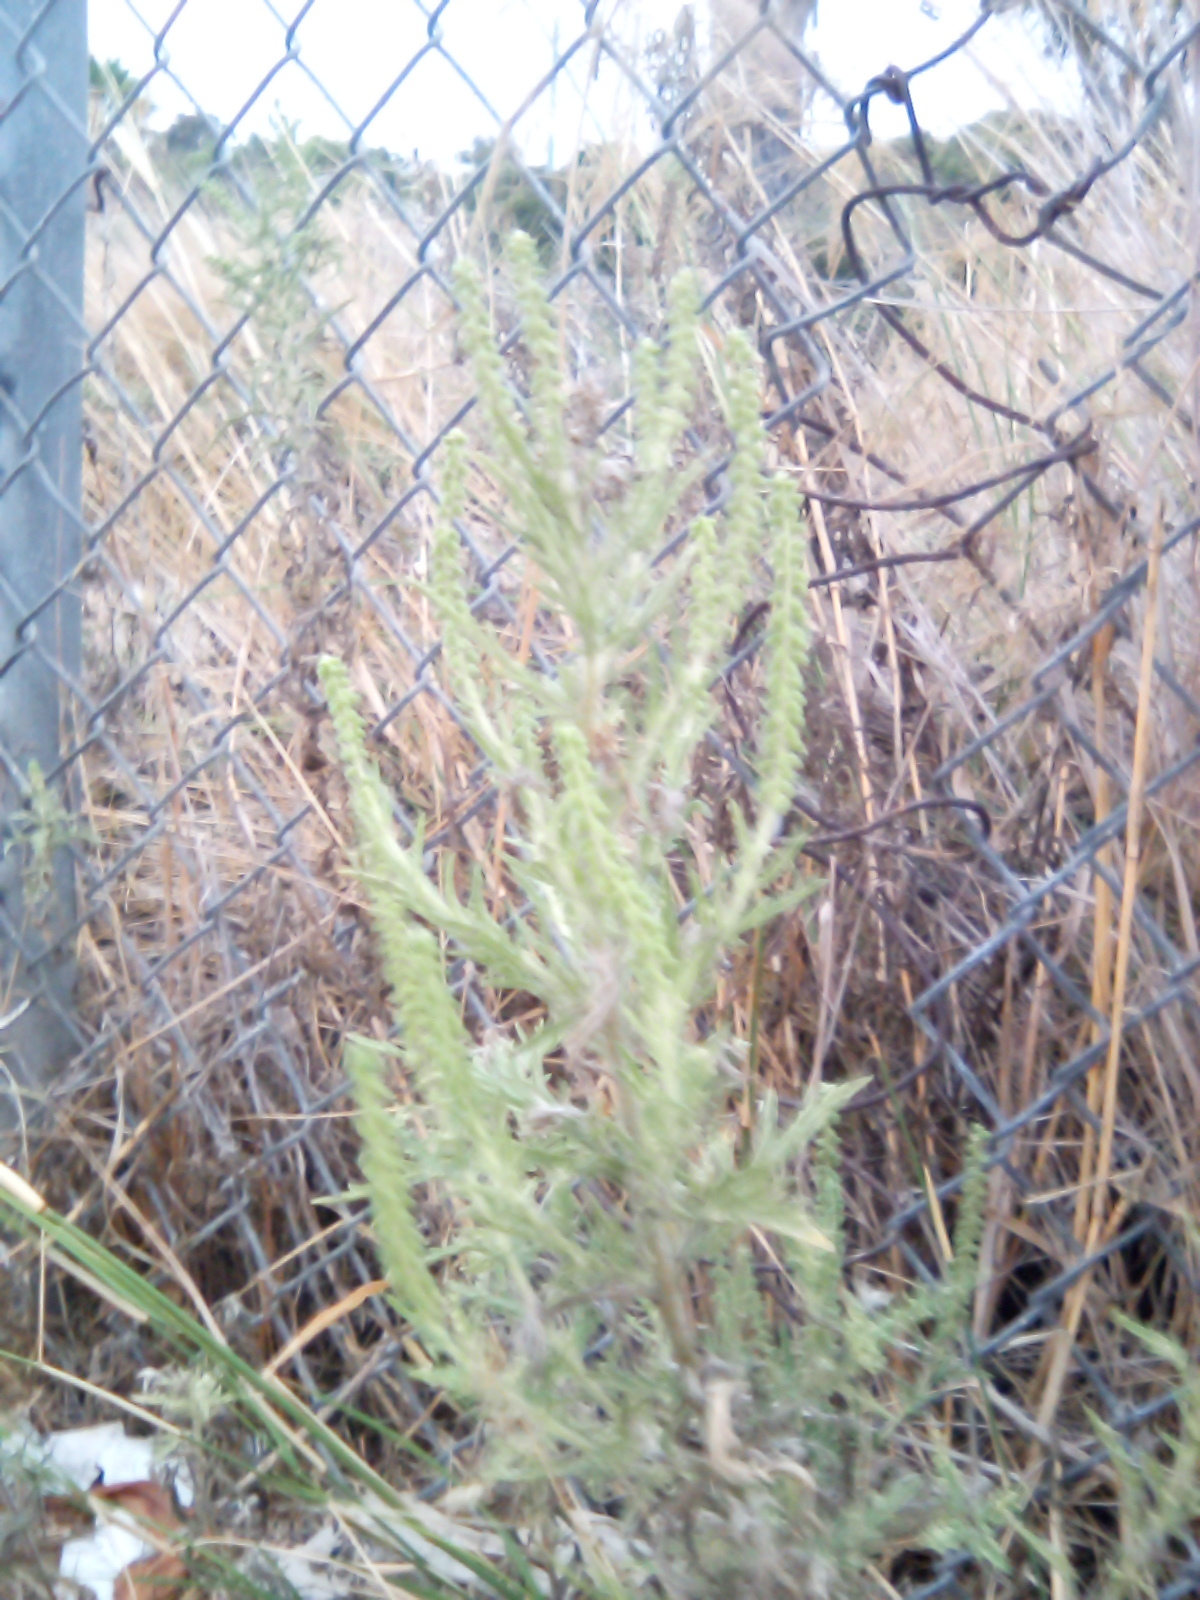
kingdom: Plantae
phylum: Tracheophyta
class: Magnoliopsida
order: Asterales
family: Asteraceae
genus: Ambrosia
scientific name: Ambrosia psilostachya
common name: Perennial ragweed
